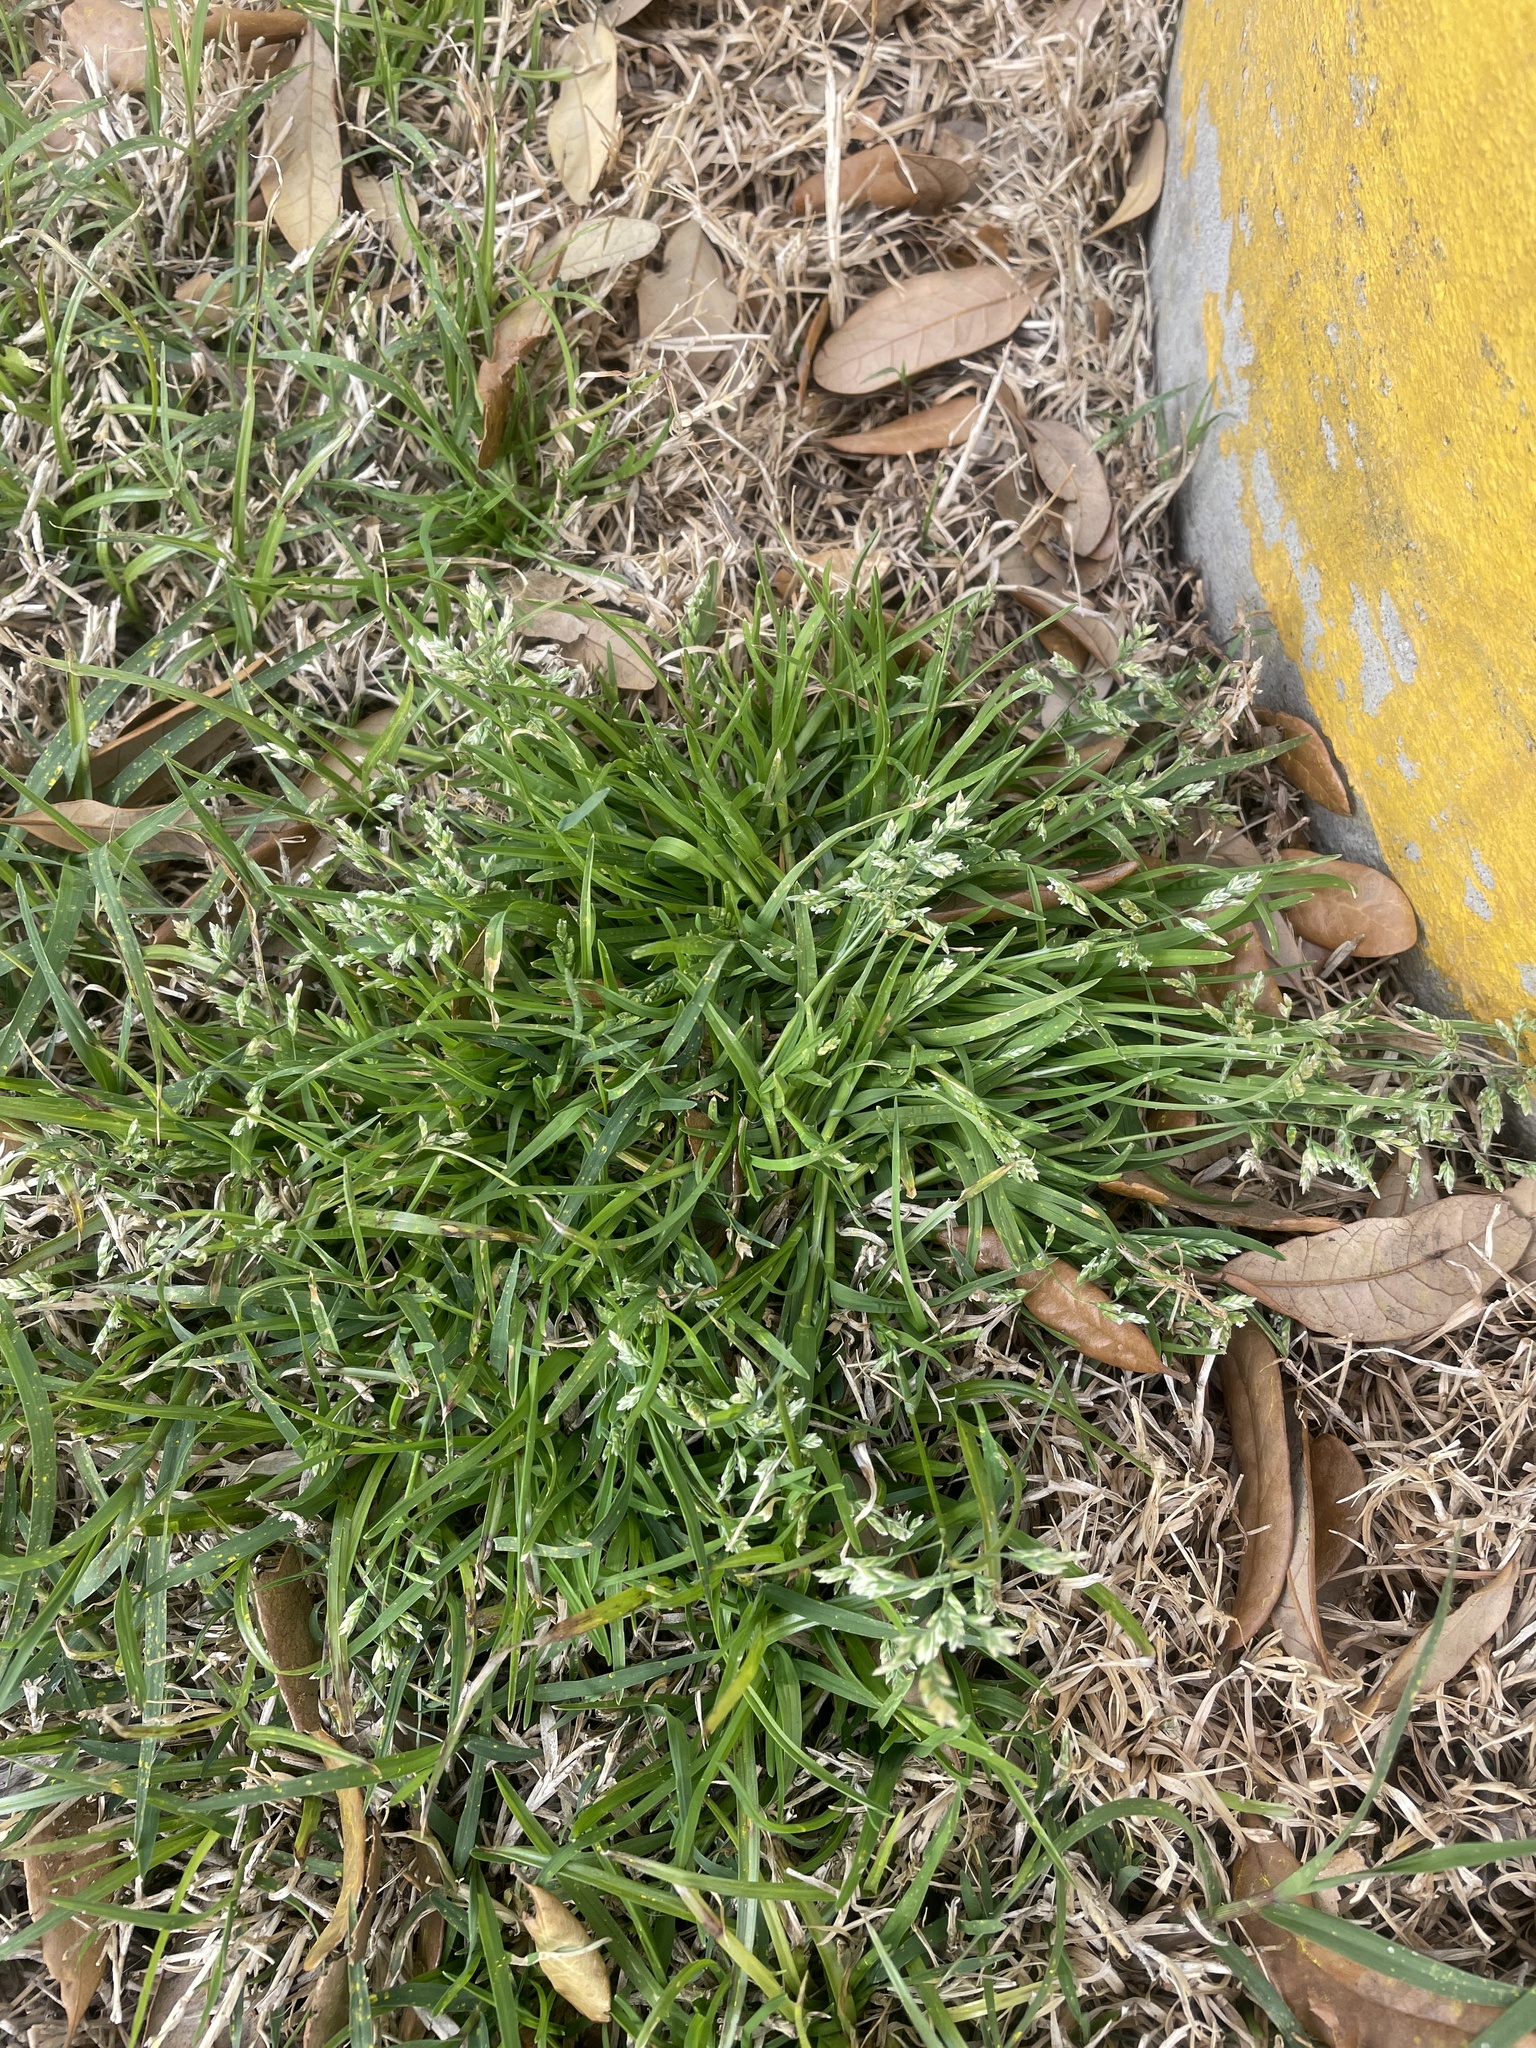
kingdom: Plantae
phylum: Tracheophyta
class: Liliopsida
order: Poales
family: Poaceae
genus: Poa
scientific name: Poa annua
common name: Annual bluegrass
